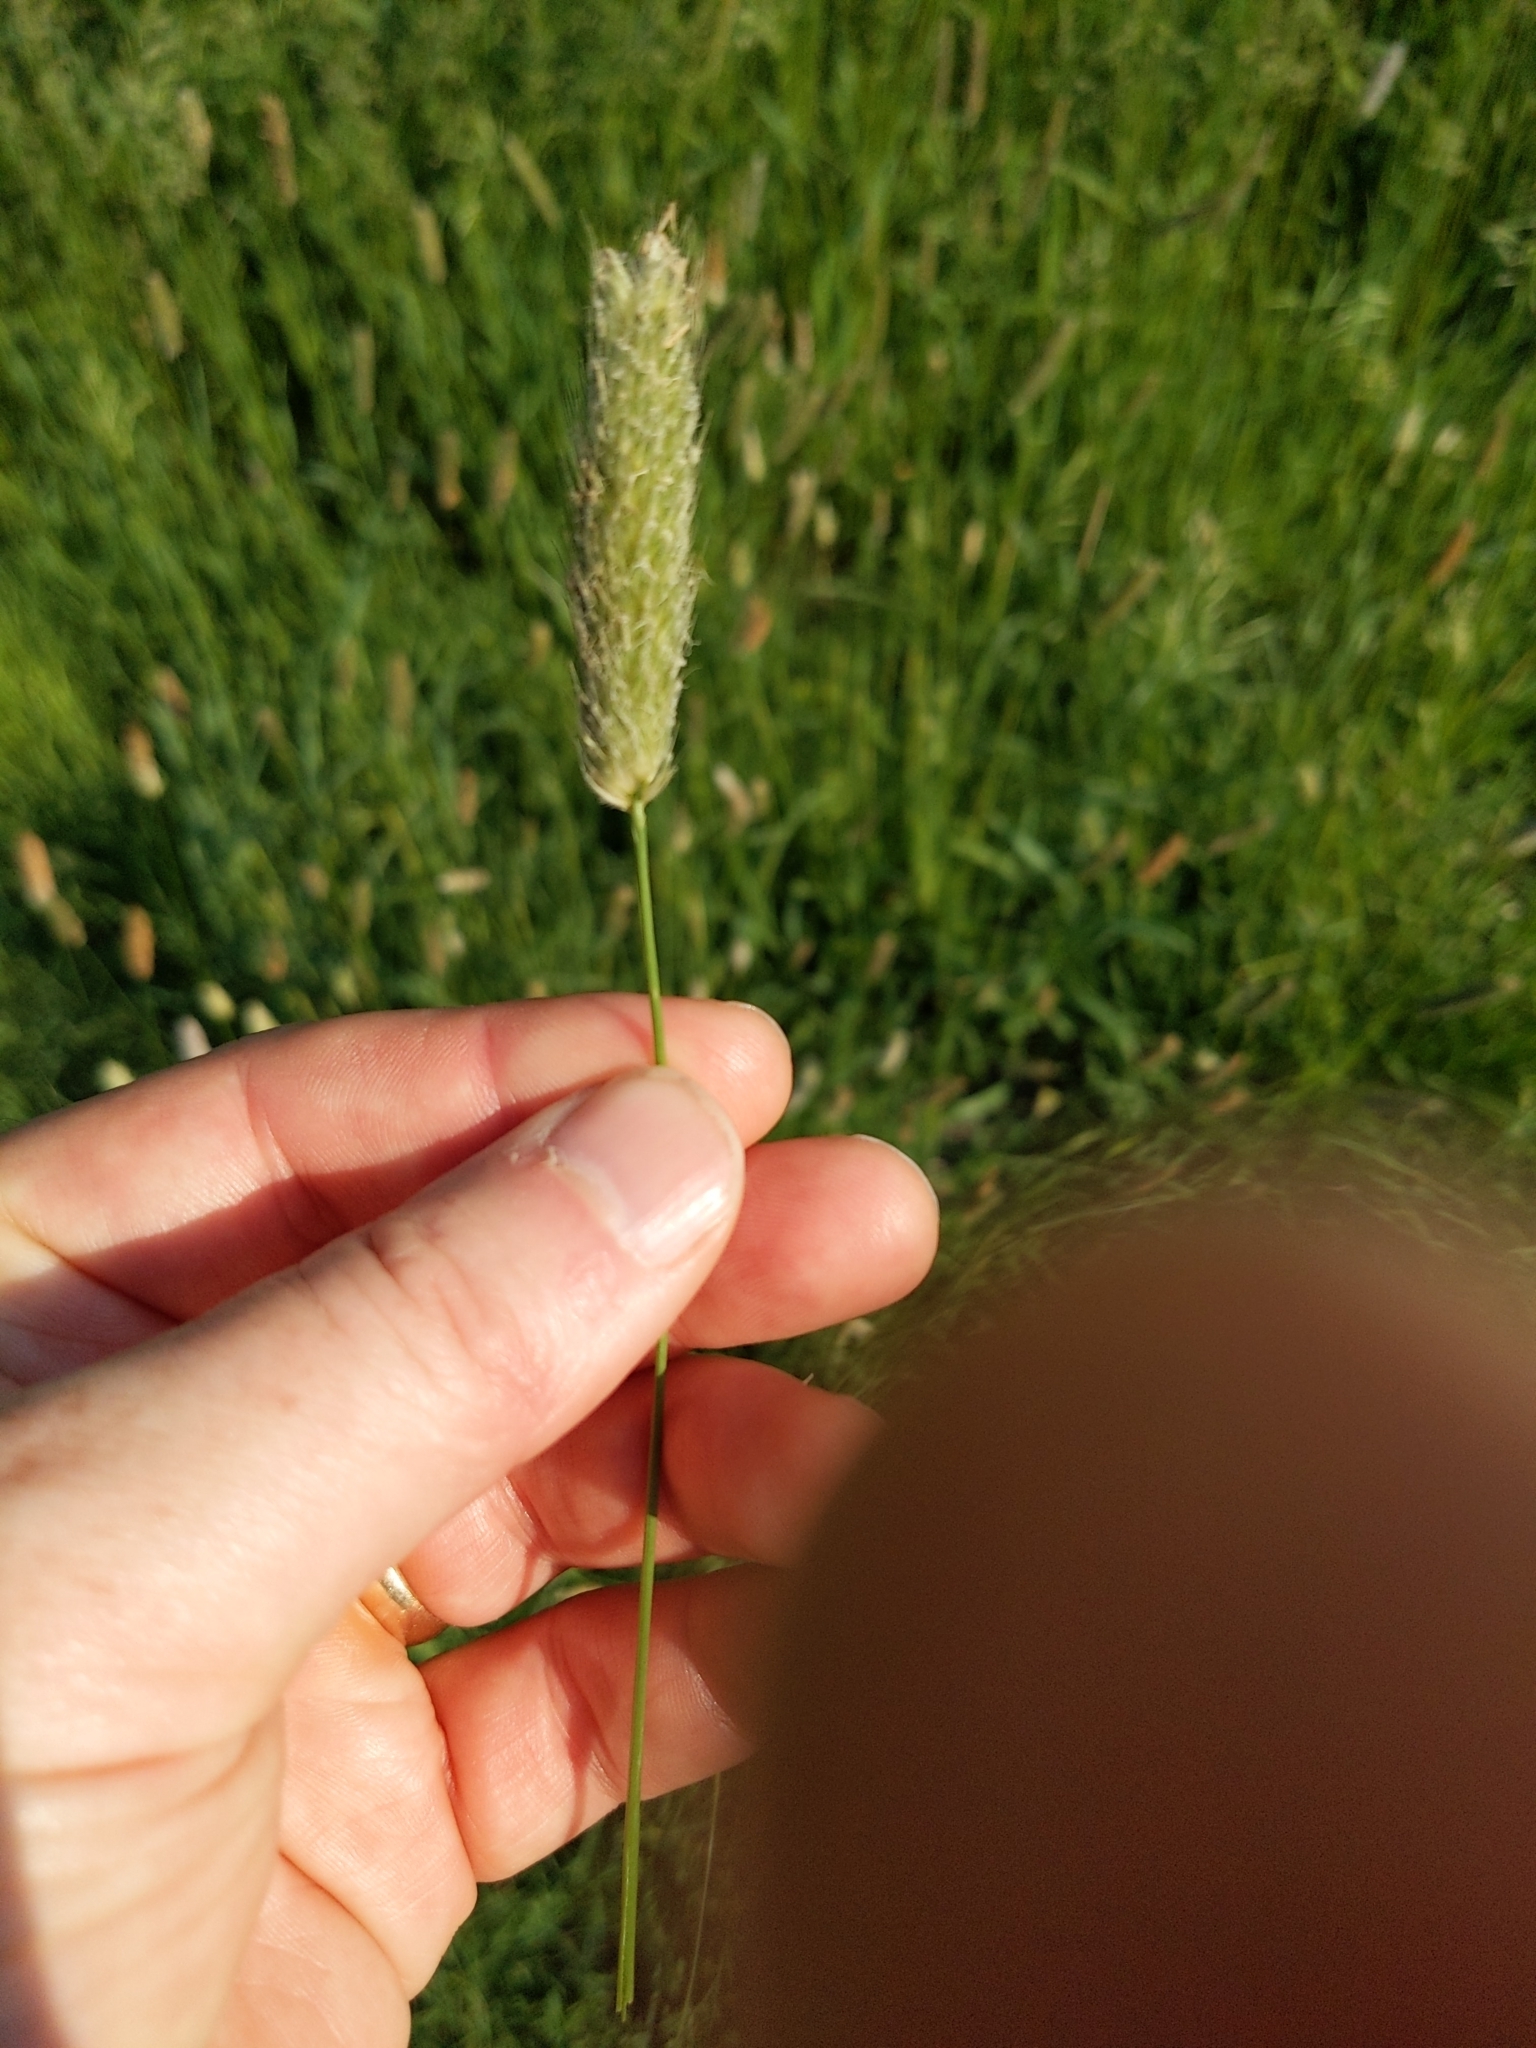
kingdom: Plantae
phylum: Tracheophyta
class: Liliopsida
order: Poales
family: Poaceae
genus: Alopecurus
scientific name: Alopecurus pratensis
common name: Meadow foxtail
